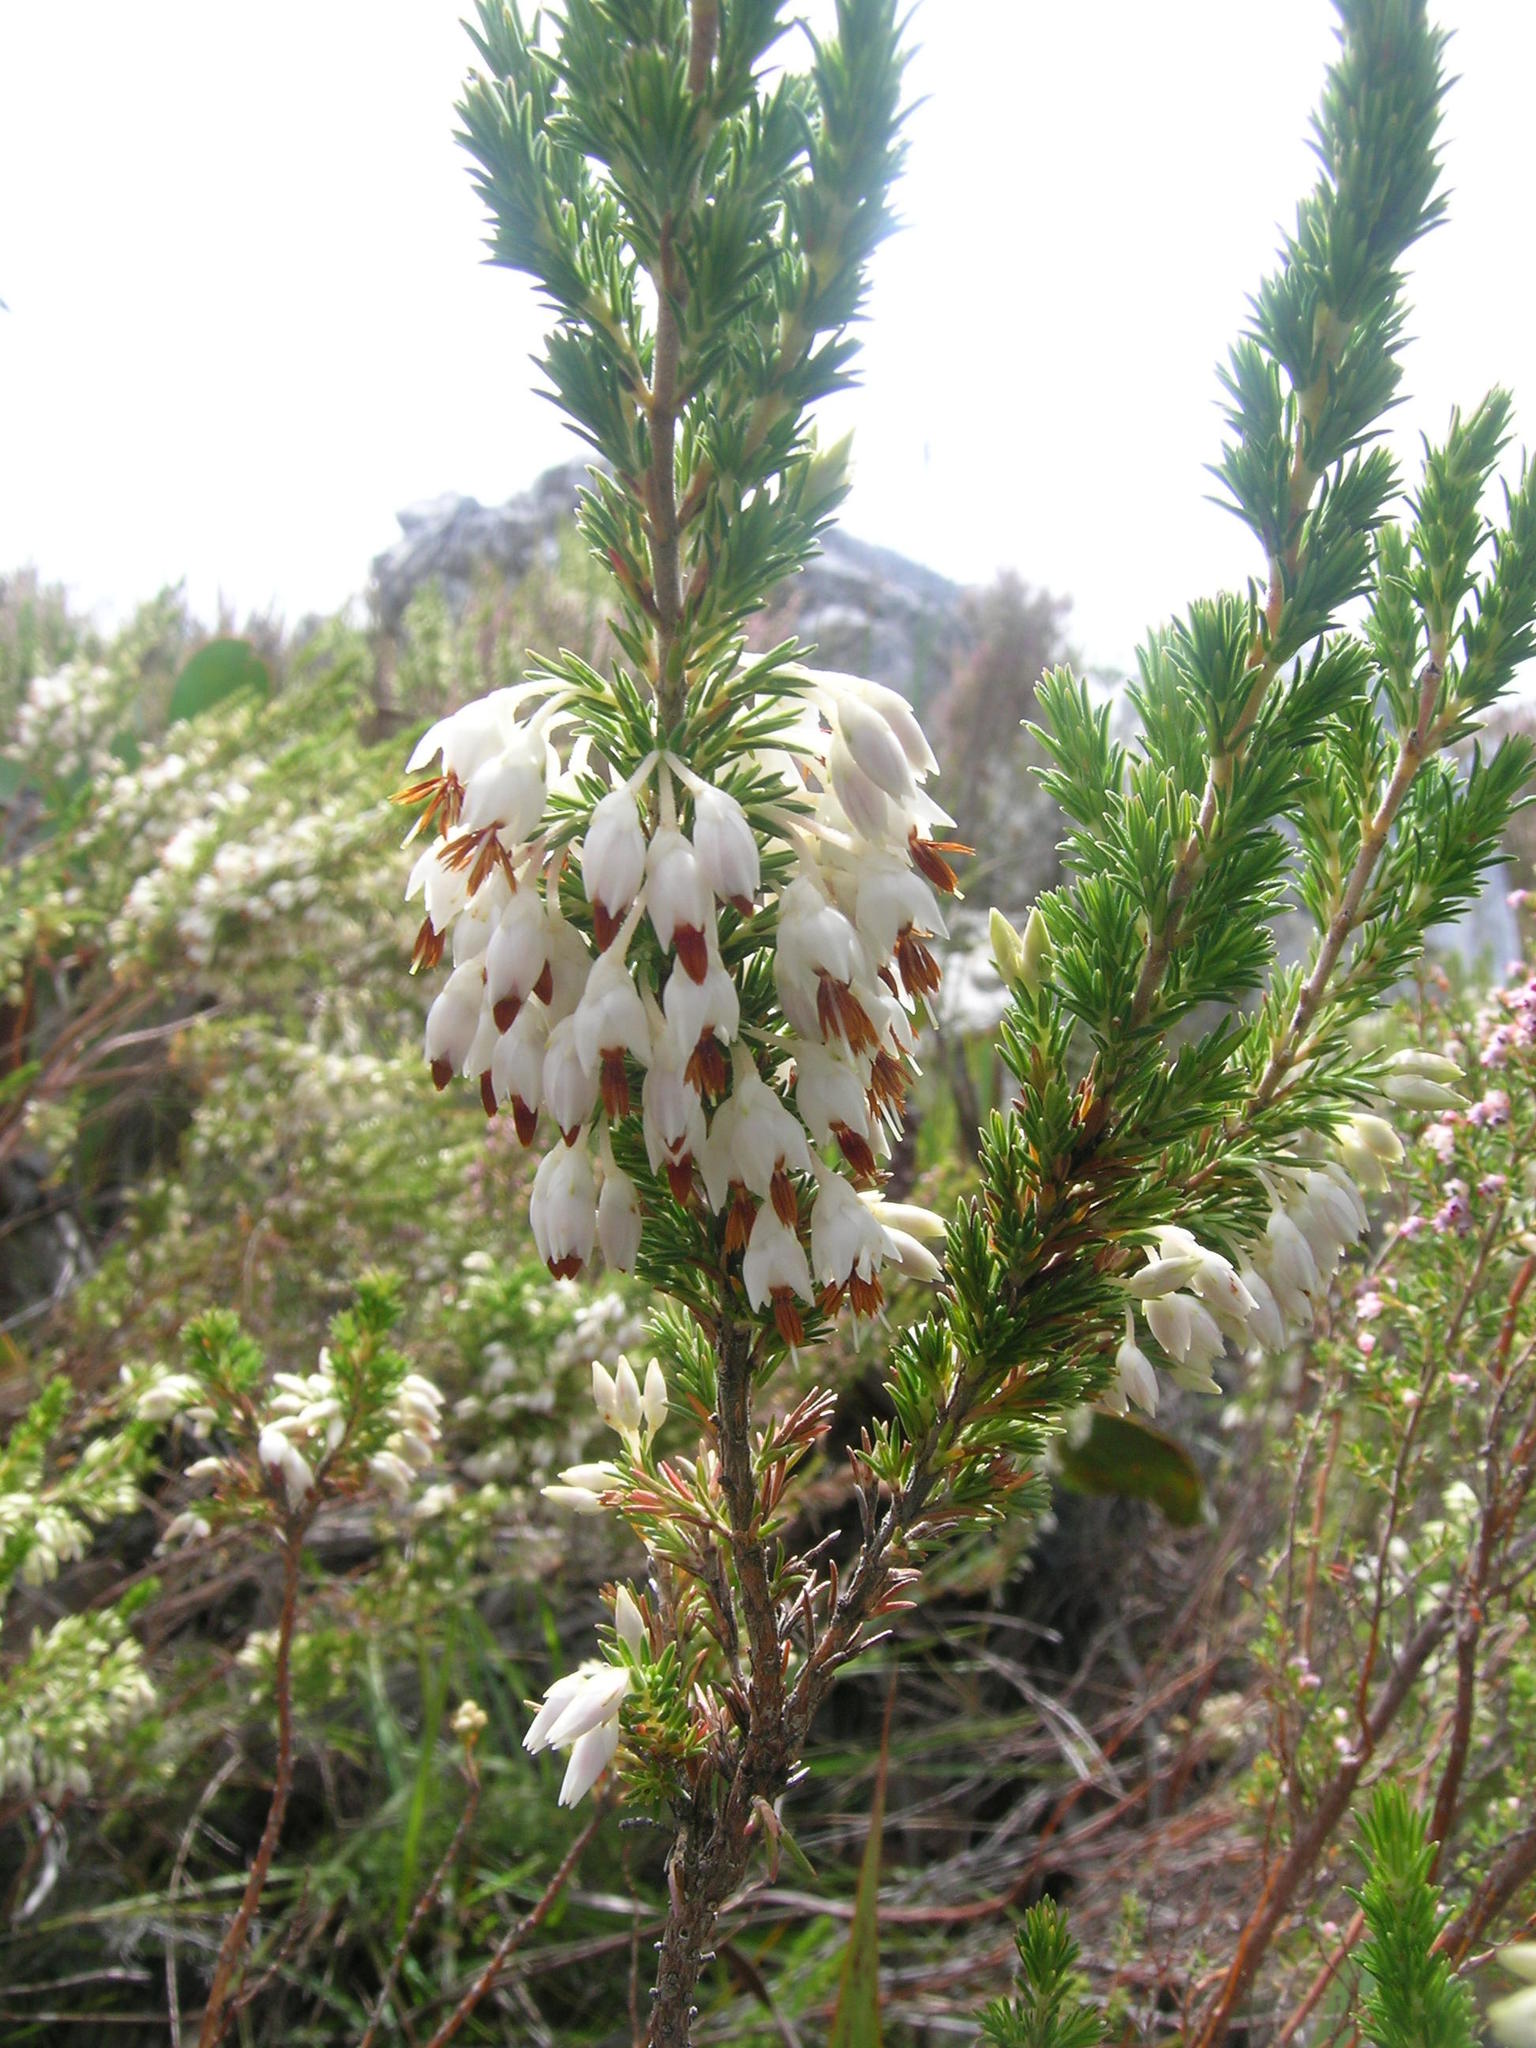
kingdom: Plantae
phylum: Tracheophyta
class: Magnoliopsida
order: Ericales
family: Ericaceae
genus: Erica
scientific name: Erica penicilliformis
